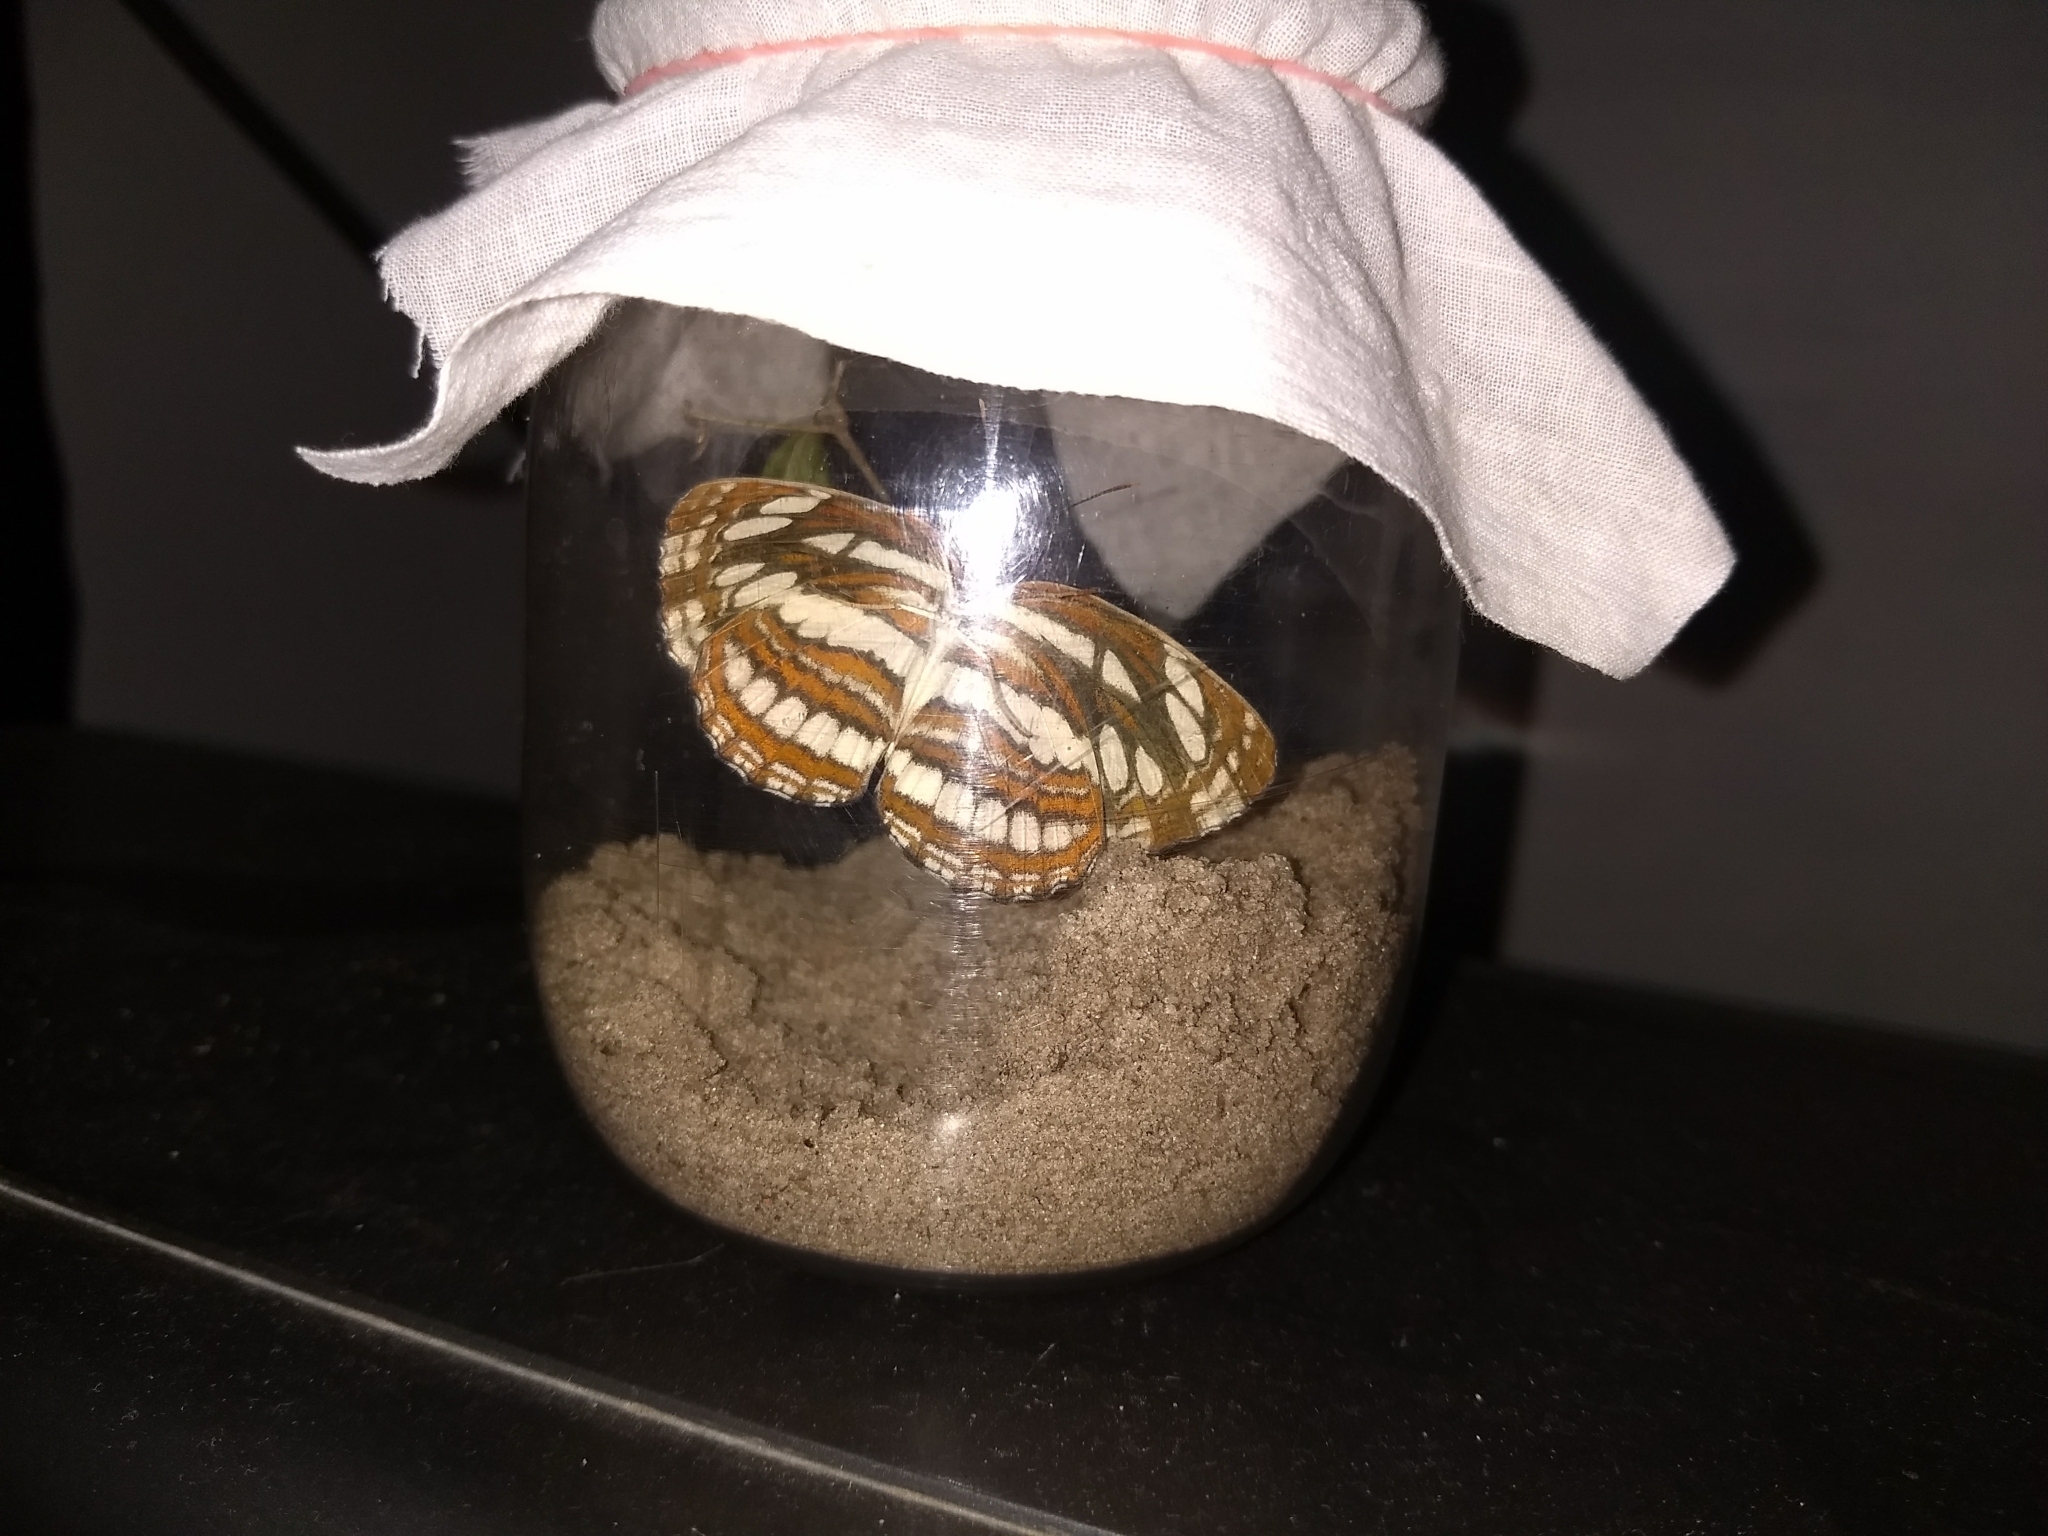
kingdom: Animalia
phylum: Arthropoda
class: Insecta
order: Lepidoptera
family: Nymphalidae
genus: Neptis
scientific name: Neptis hylas
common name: Common sailer
